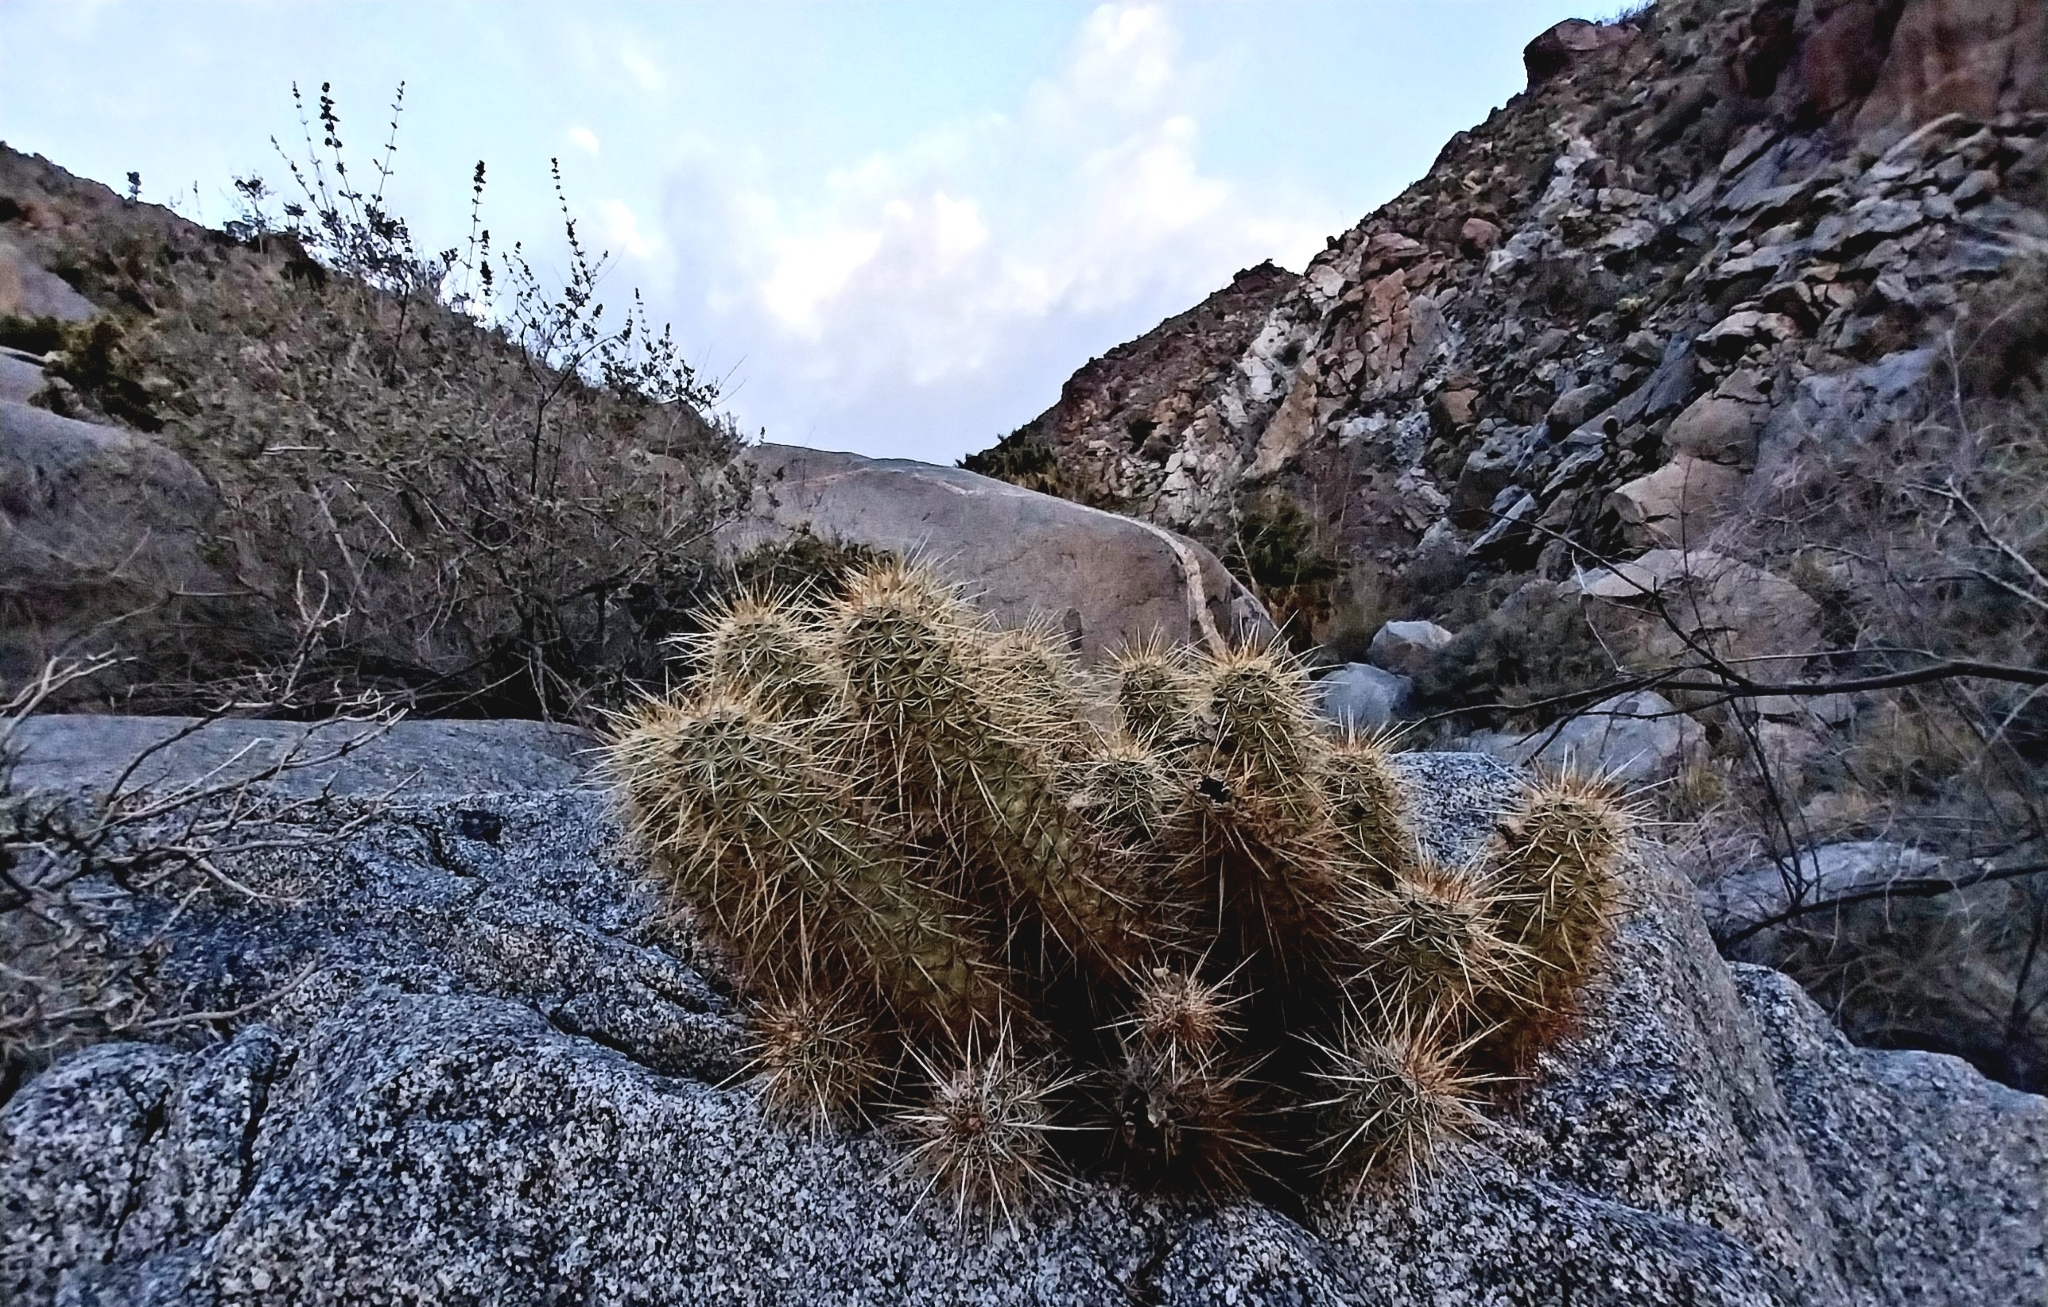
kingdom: Plantae
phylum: Tracheophyta
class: Magnoliopsida
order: Caryophyllales
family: Cactaceae
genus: Echinocereus
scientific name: Echinocereus engelmannii
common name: Engelmann's hedgehog cactus
